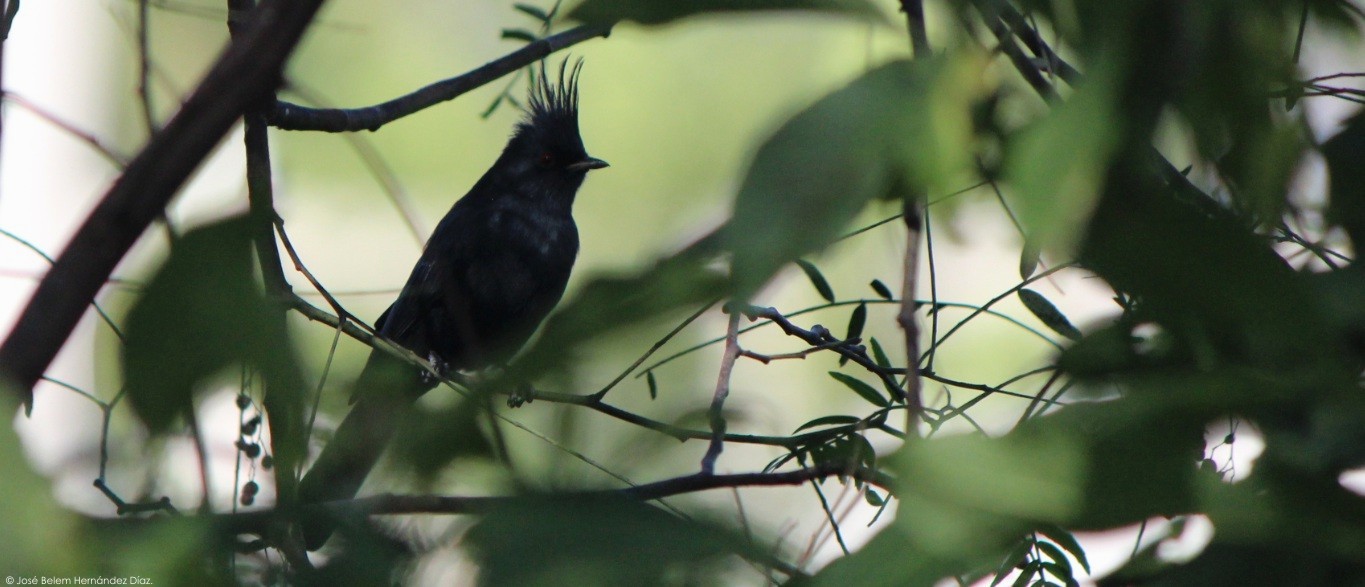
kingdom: Animalia
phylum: Chordata
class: Aves
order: Passeriformes
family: Ptilogonatidae
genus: Phainopepla
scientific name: Phainopepla nitens
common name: Phainopepla
